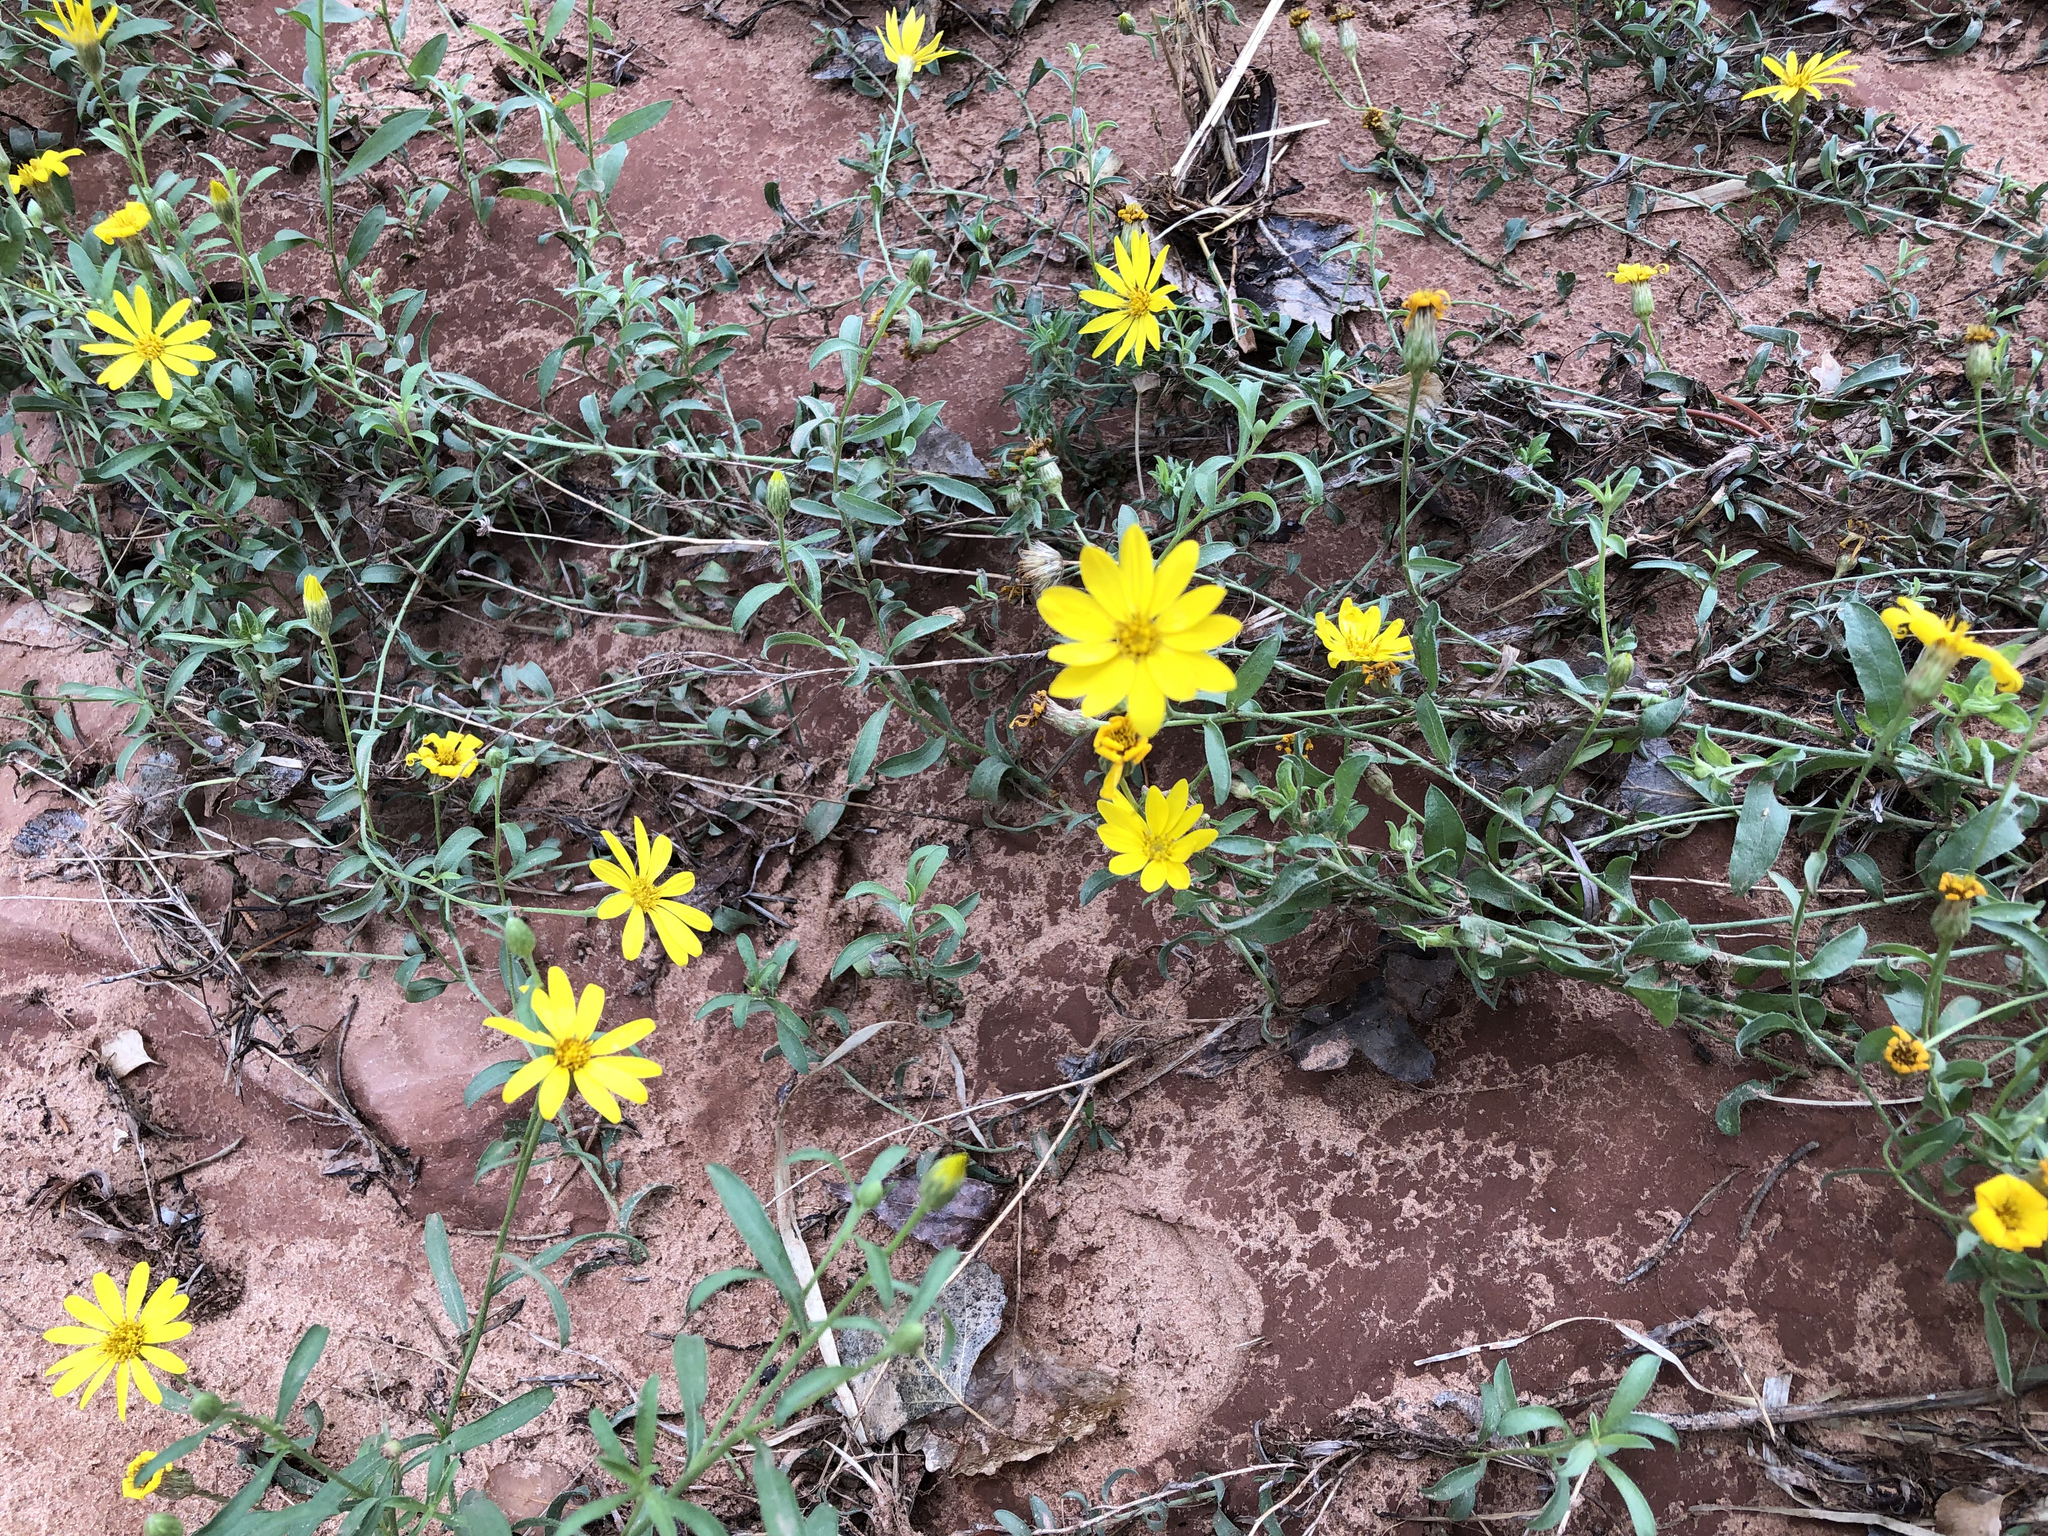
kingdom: Plantae
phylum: Tracheophyta
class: Magnoliopsida
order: Asterales
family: Asteraceae
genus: Heterotheca
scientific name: Heterotheca pedunculata
